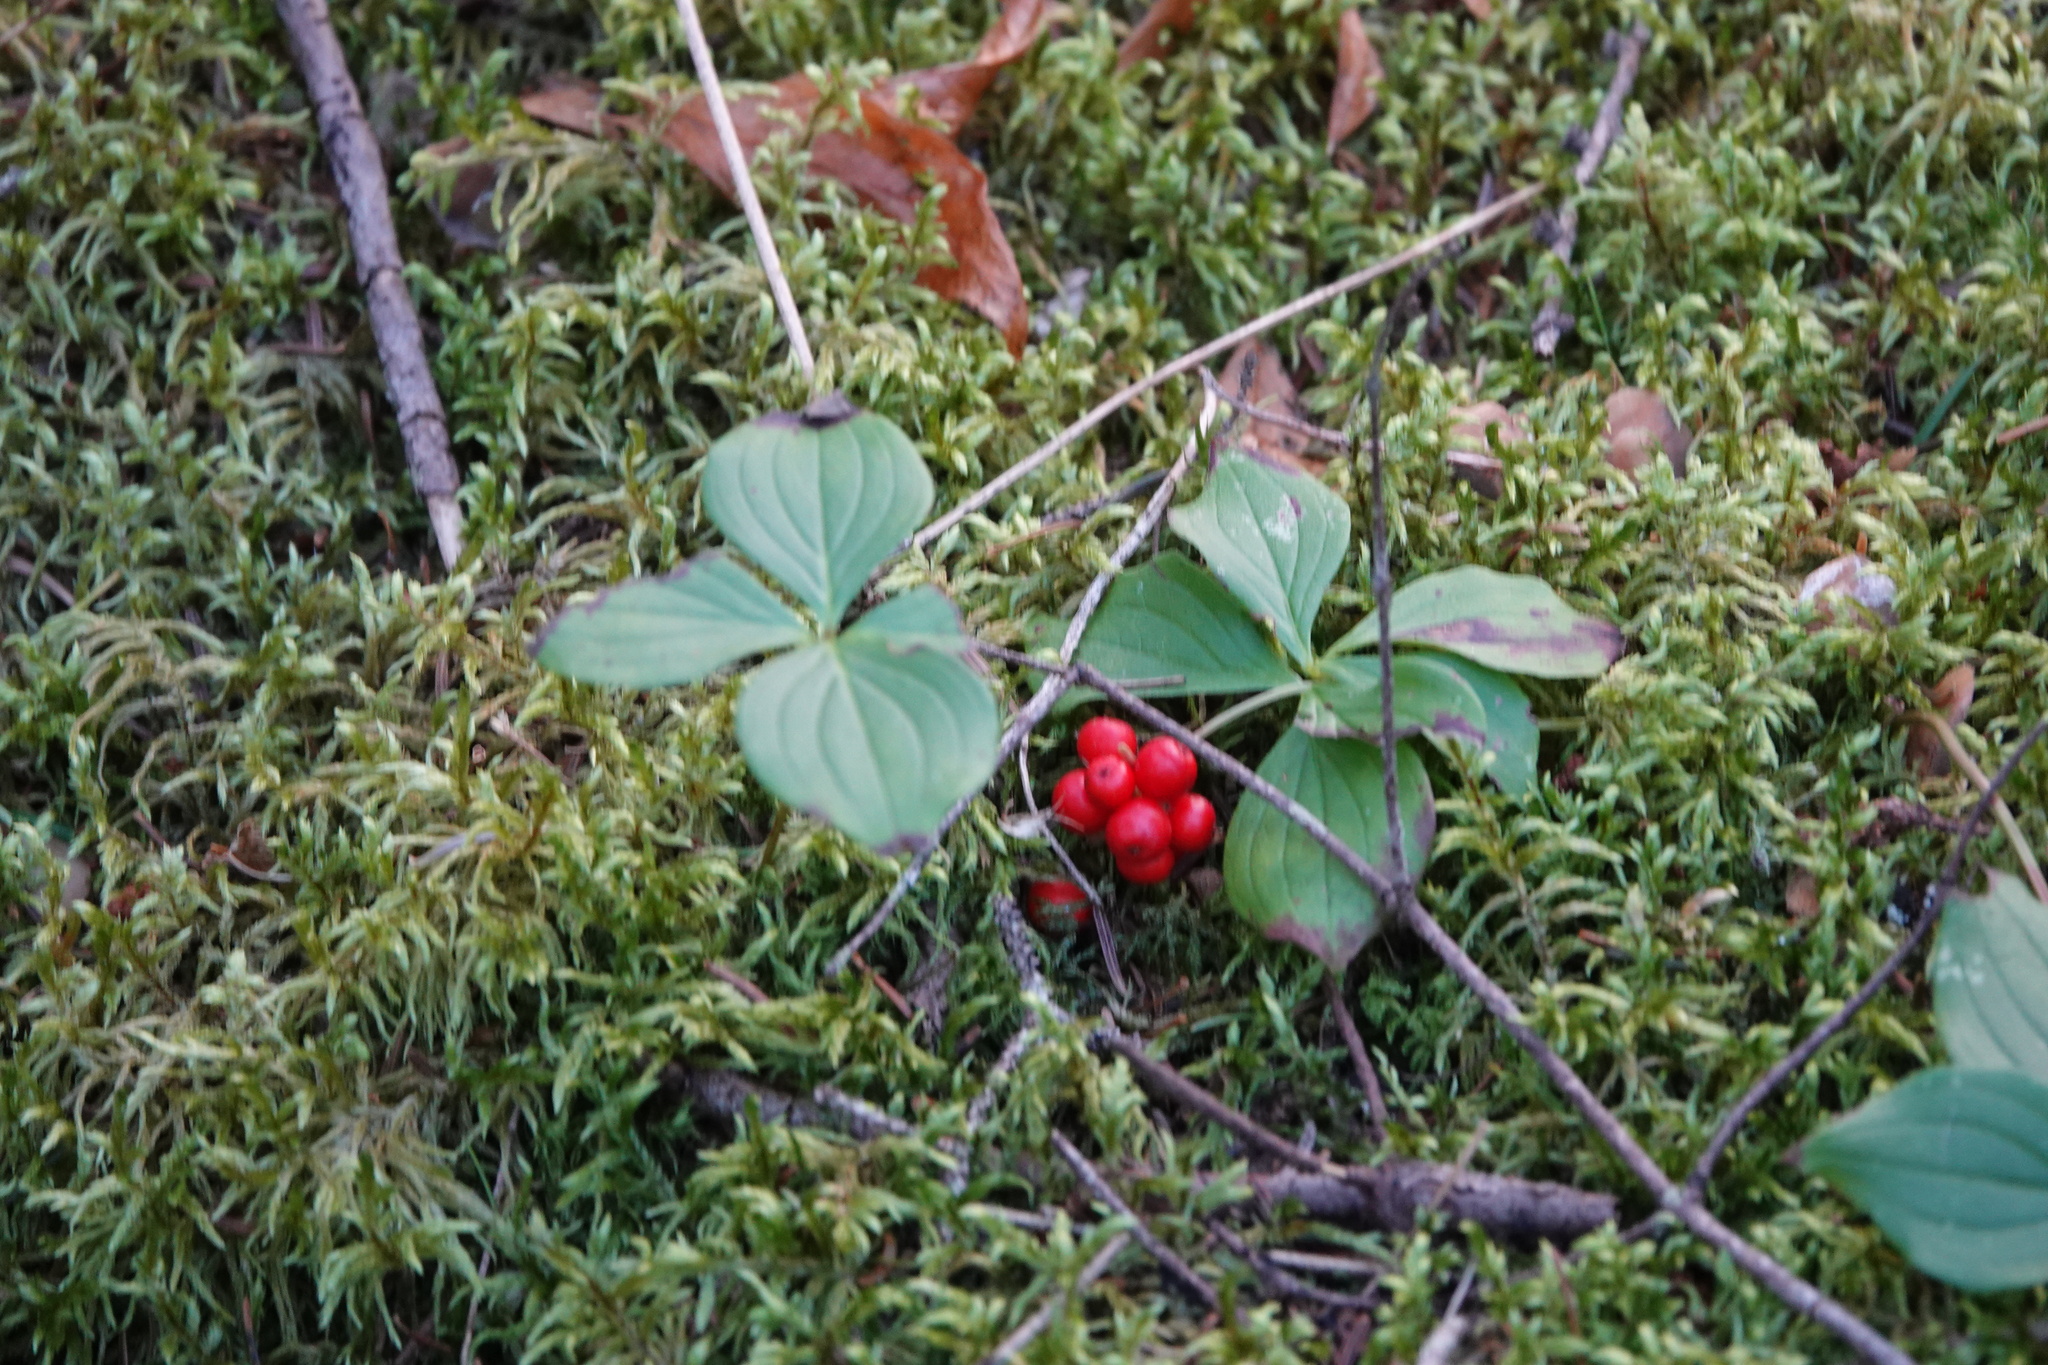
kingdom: Plantae
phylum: Tracheophyta
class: Magnoliopsida
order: Cornales
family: Cornaceae
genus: Cornus
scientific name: Cornus canadensis
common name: Creeping dogwood
